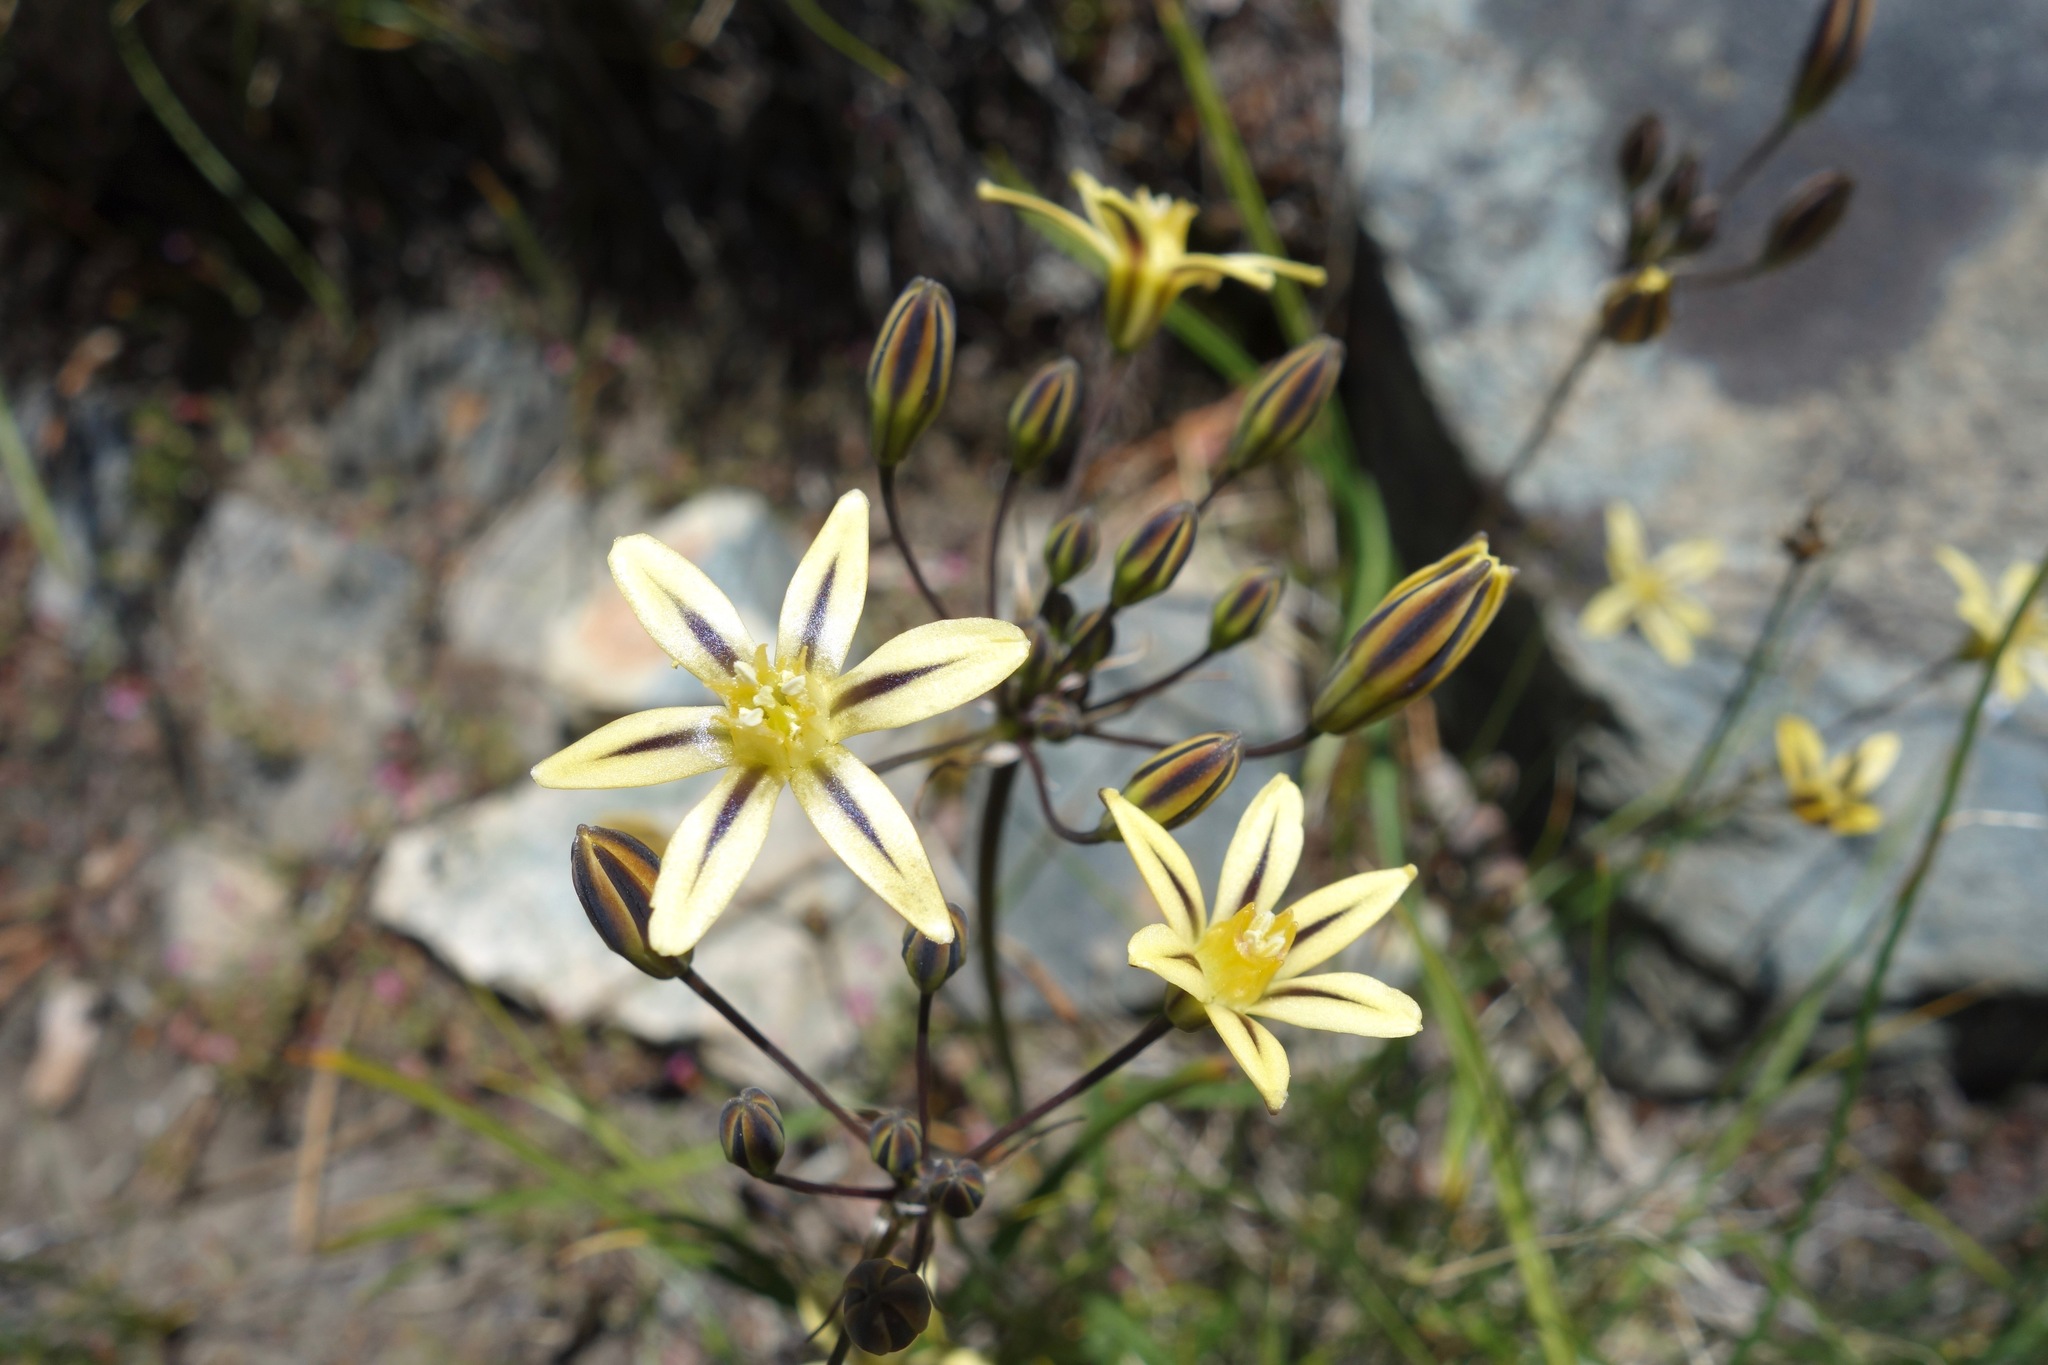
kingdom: Plantae
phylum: Tracheophyta
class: Liliopsida
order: Asparagales
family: Asparagaceae
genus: Triteleia
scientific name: Triteleia ixioides
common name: Yellow-brodiaea
